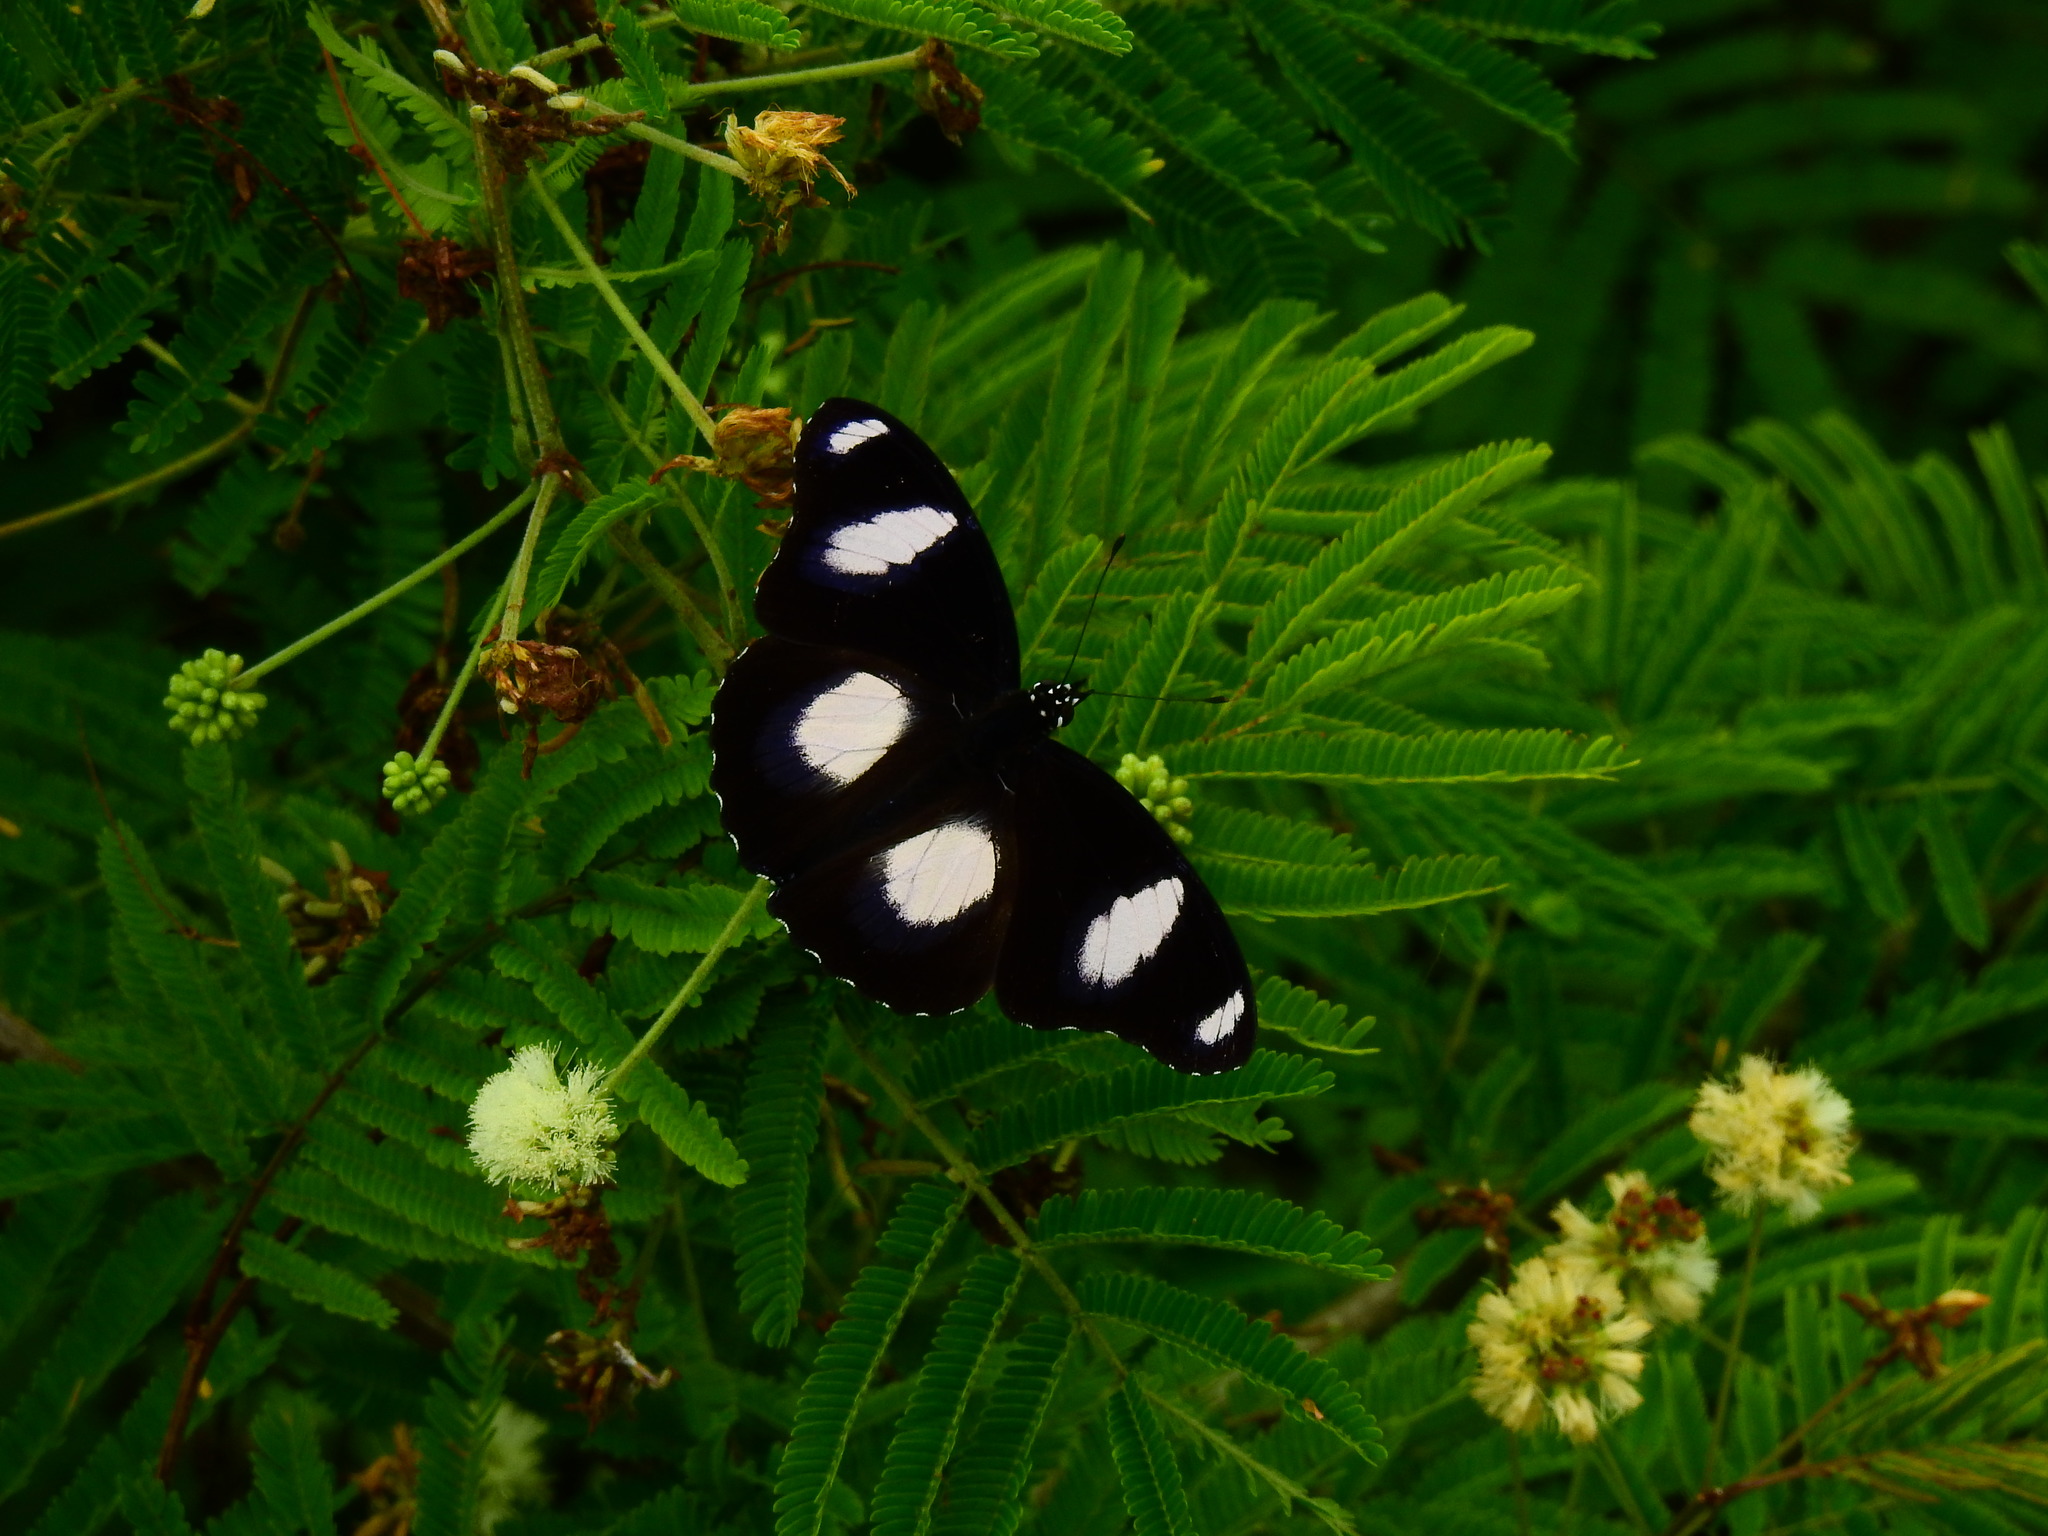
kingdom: Animalia
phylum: Arthropoda
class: Insecta
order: Lepidoptera
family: Nymphalidae
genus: Hypolimnas
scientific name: Hypolimnas misippus
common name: False plain tiger
